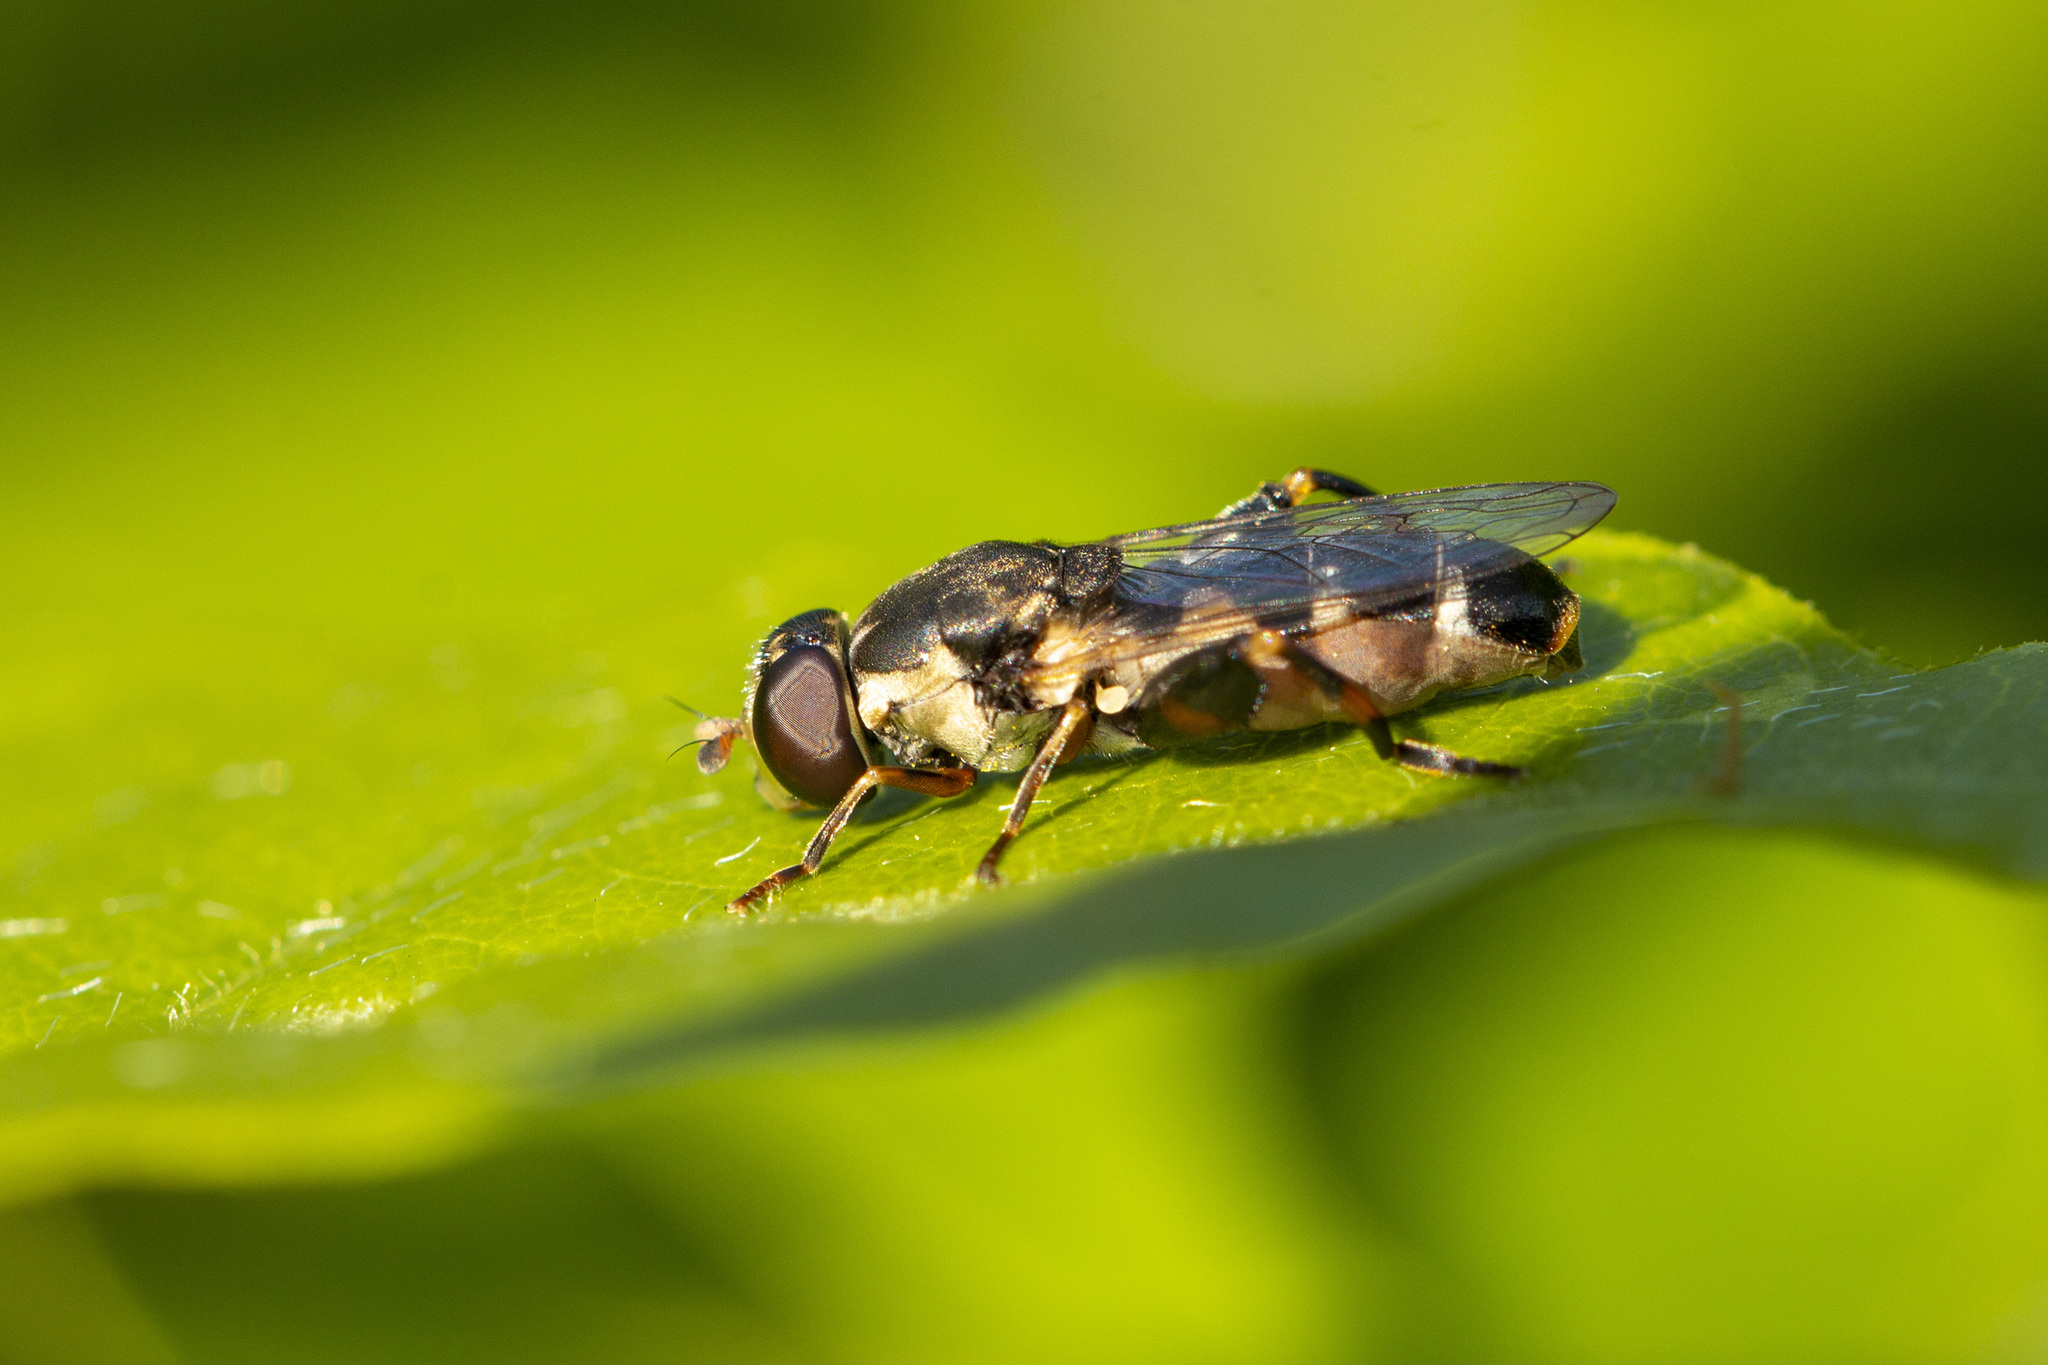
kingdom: Animalia
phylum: Arthropoda
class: Insecta
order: Diptera
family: Syrphidae
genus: Syritta
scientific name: Syritta pipiens
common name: Hover fly
